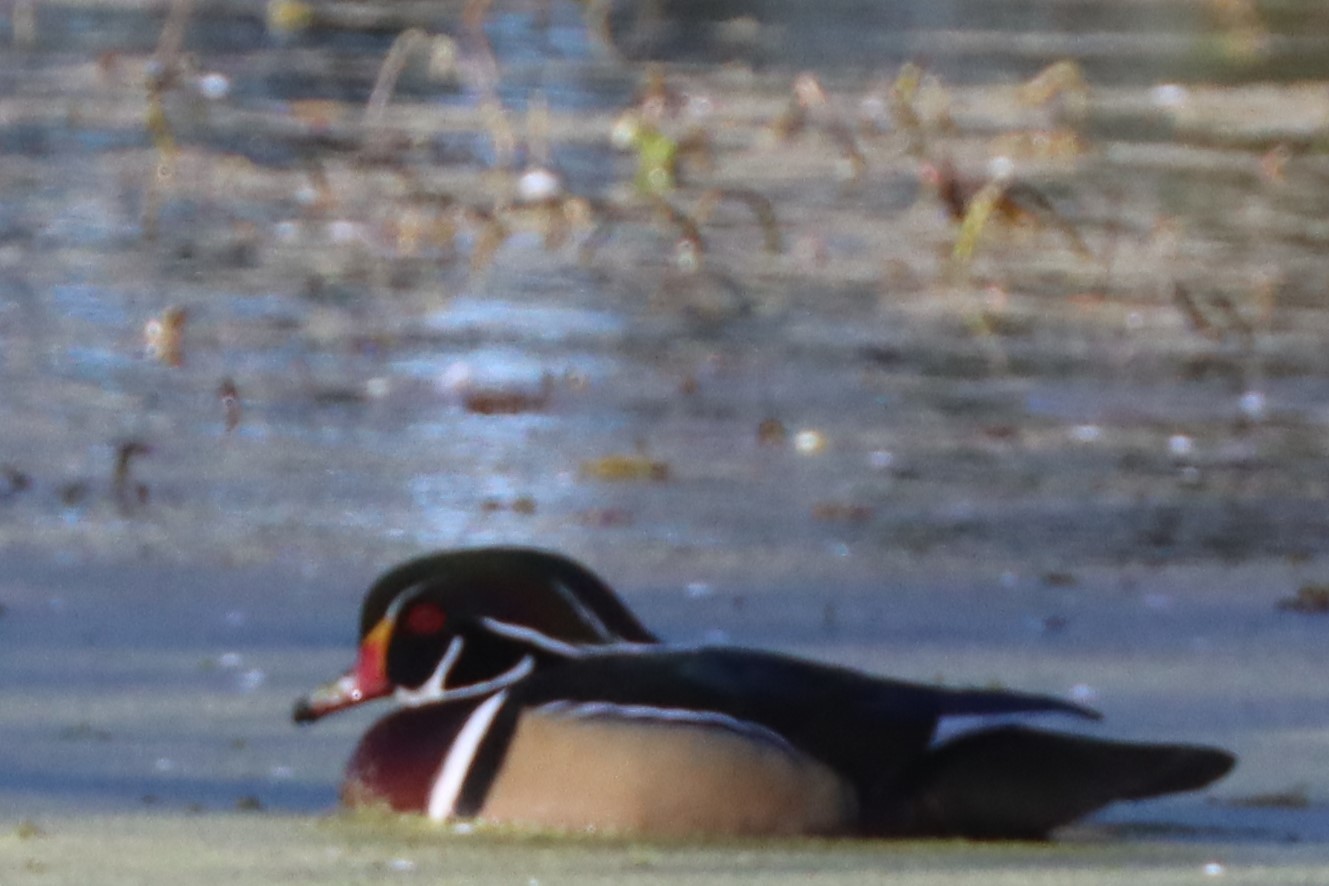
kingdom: Animalia
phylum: Chordata
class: Aves
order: Anseriformes
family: Anatidae
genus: Aix
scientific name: Aix sponsa
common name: Wood duck
